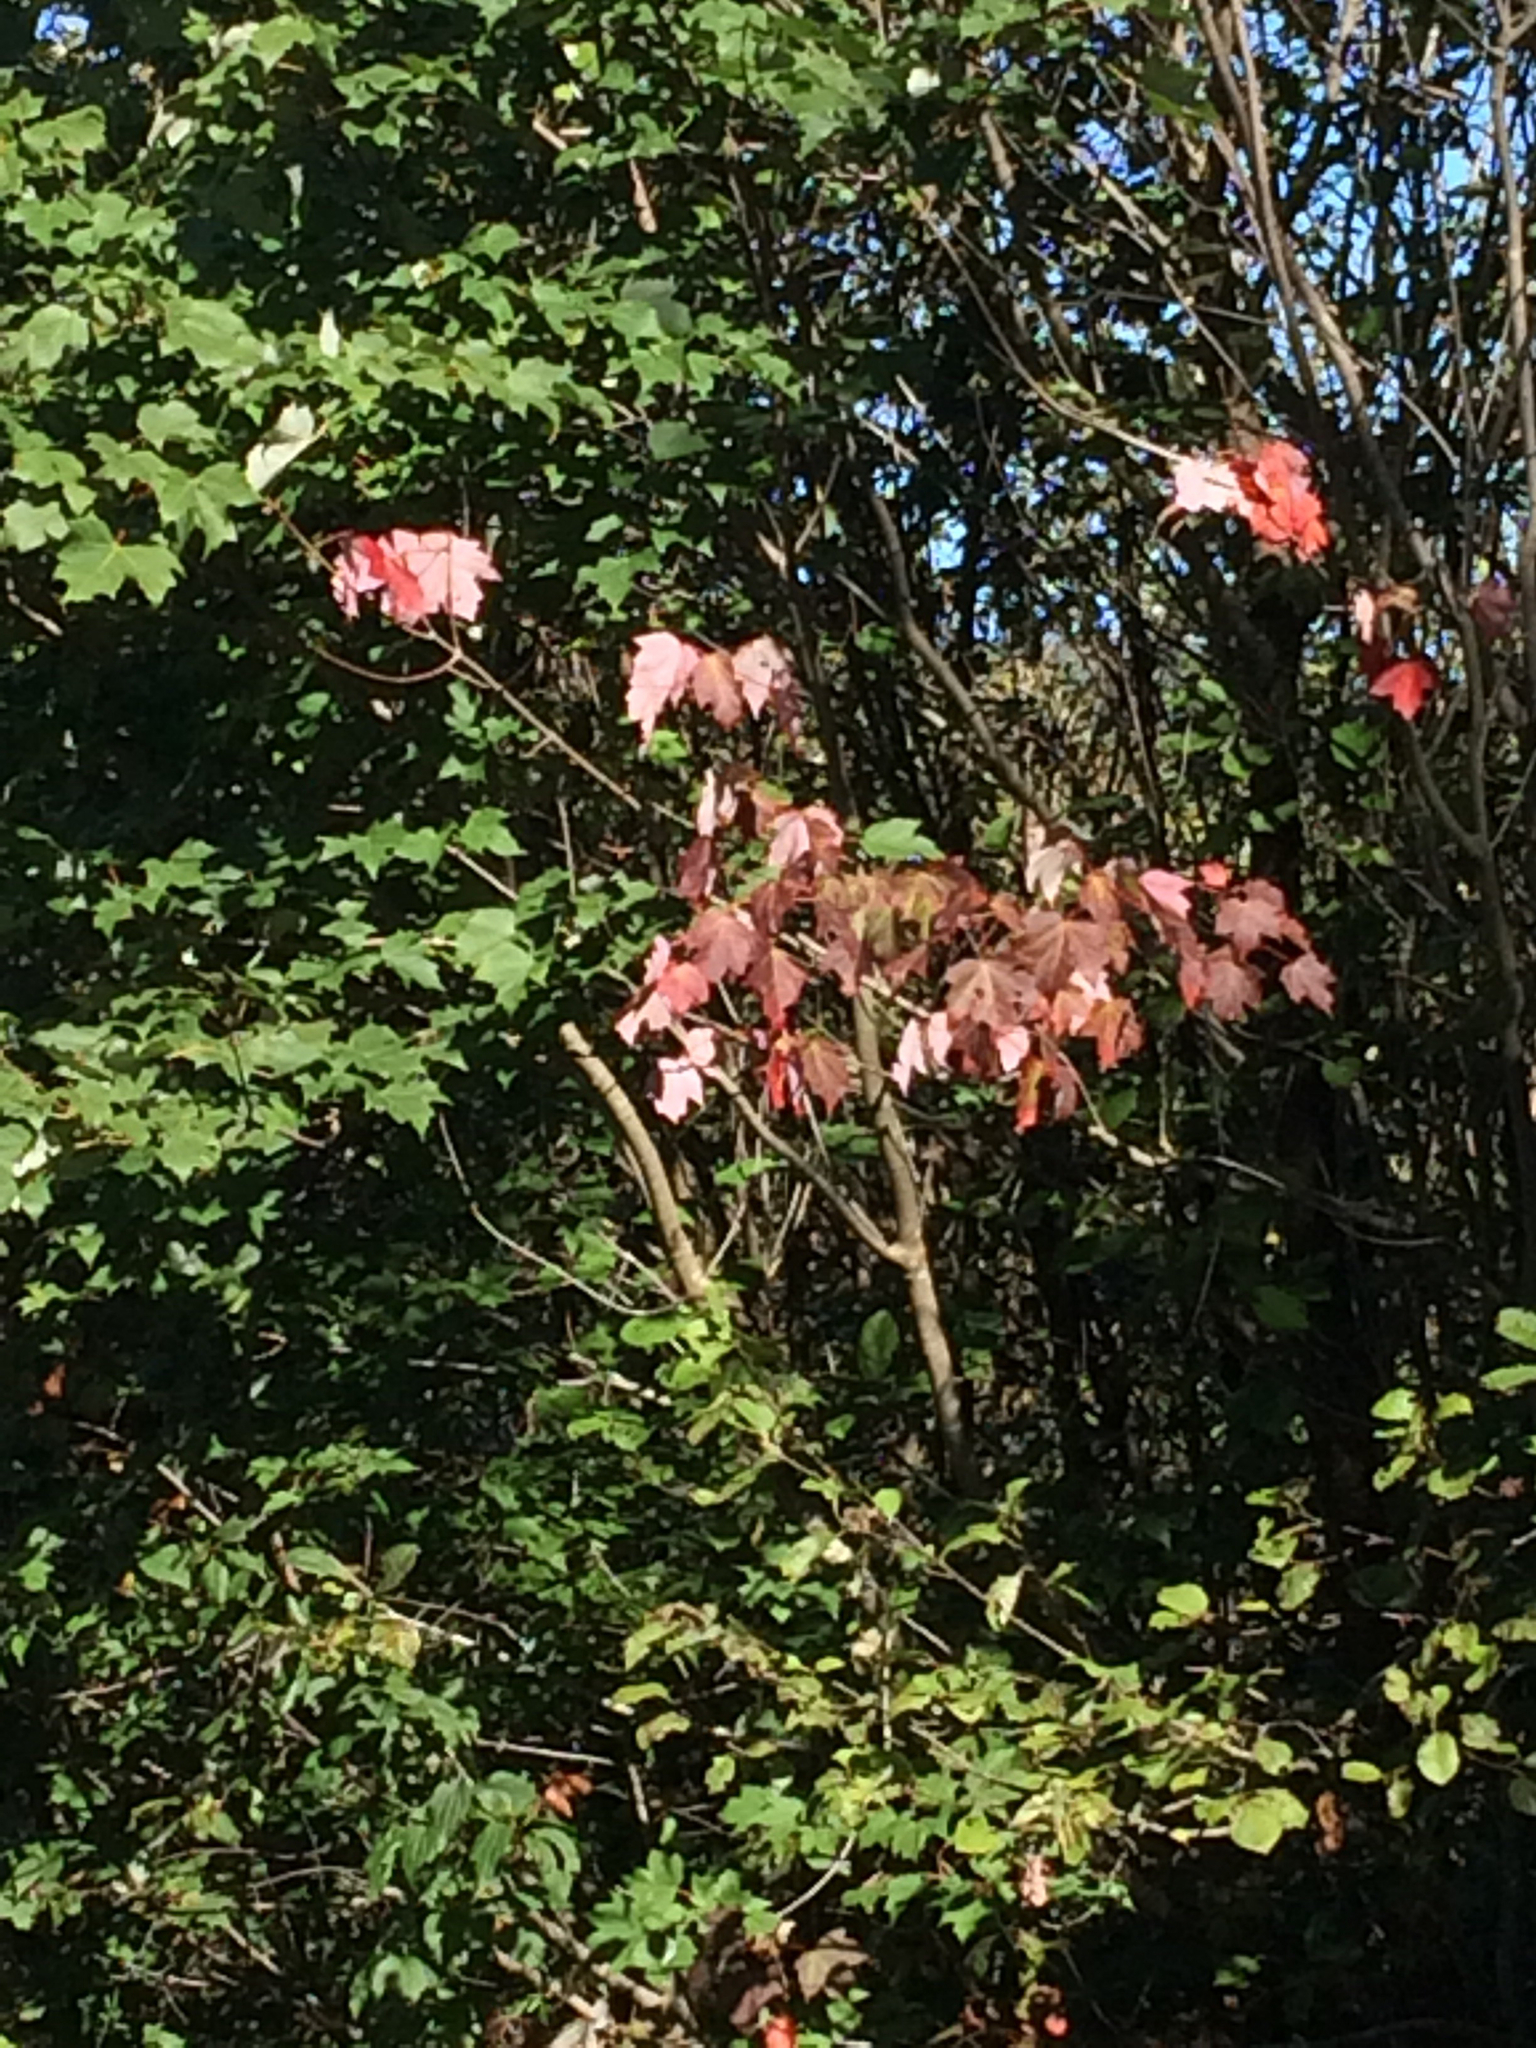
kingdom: Plantae
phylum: Tracheophyta
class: Magnoliopsida
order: Sapindales
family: Sapindaceae
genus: Acer
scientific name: Acer rubrum
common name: Red maple
